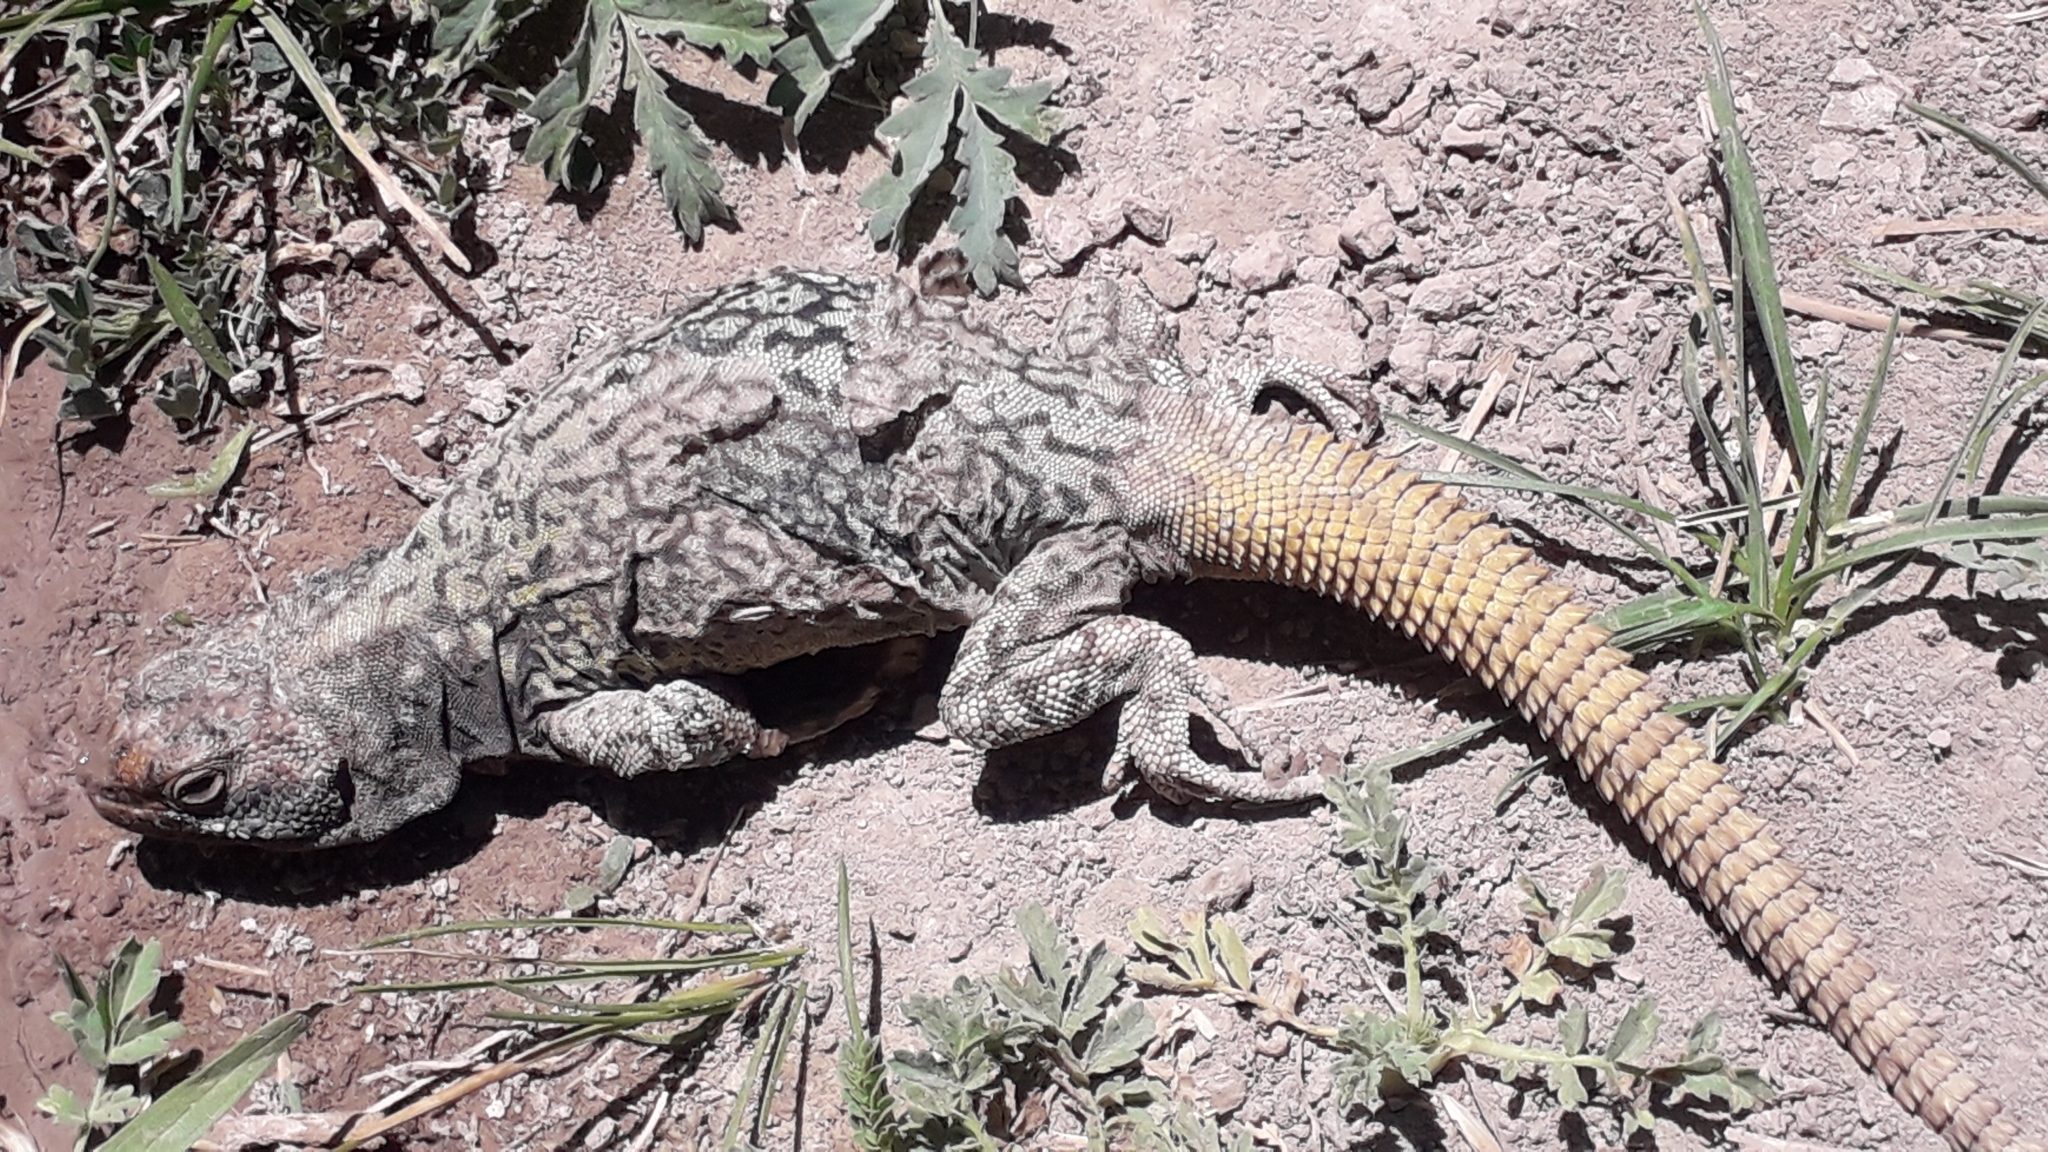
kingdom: Animalia
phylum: Chordata
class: Squamata
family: Liolaemidae
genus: Phymaturus
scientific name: Phymaturus palluma
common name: High mountain lizard
